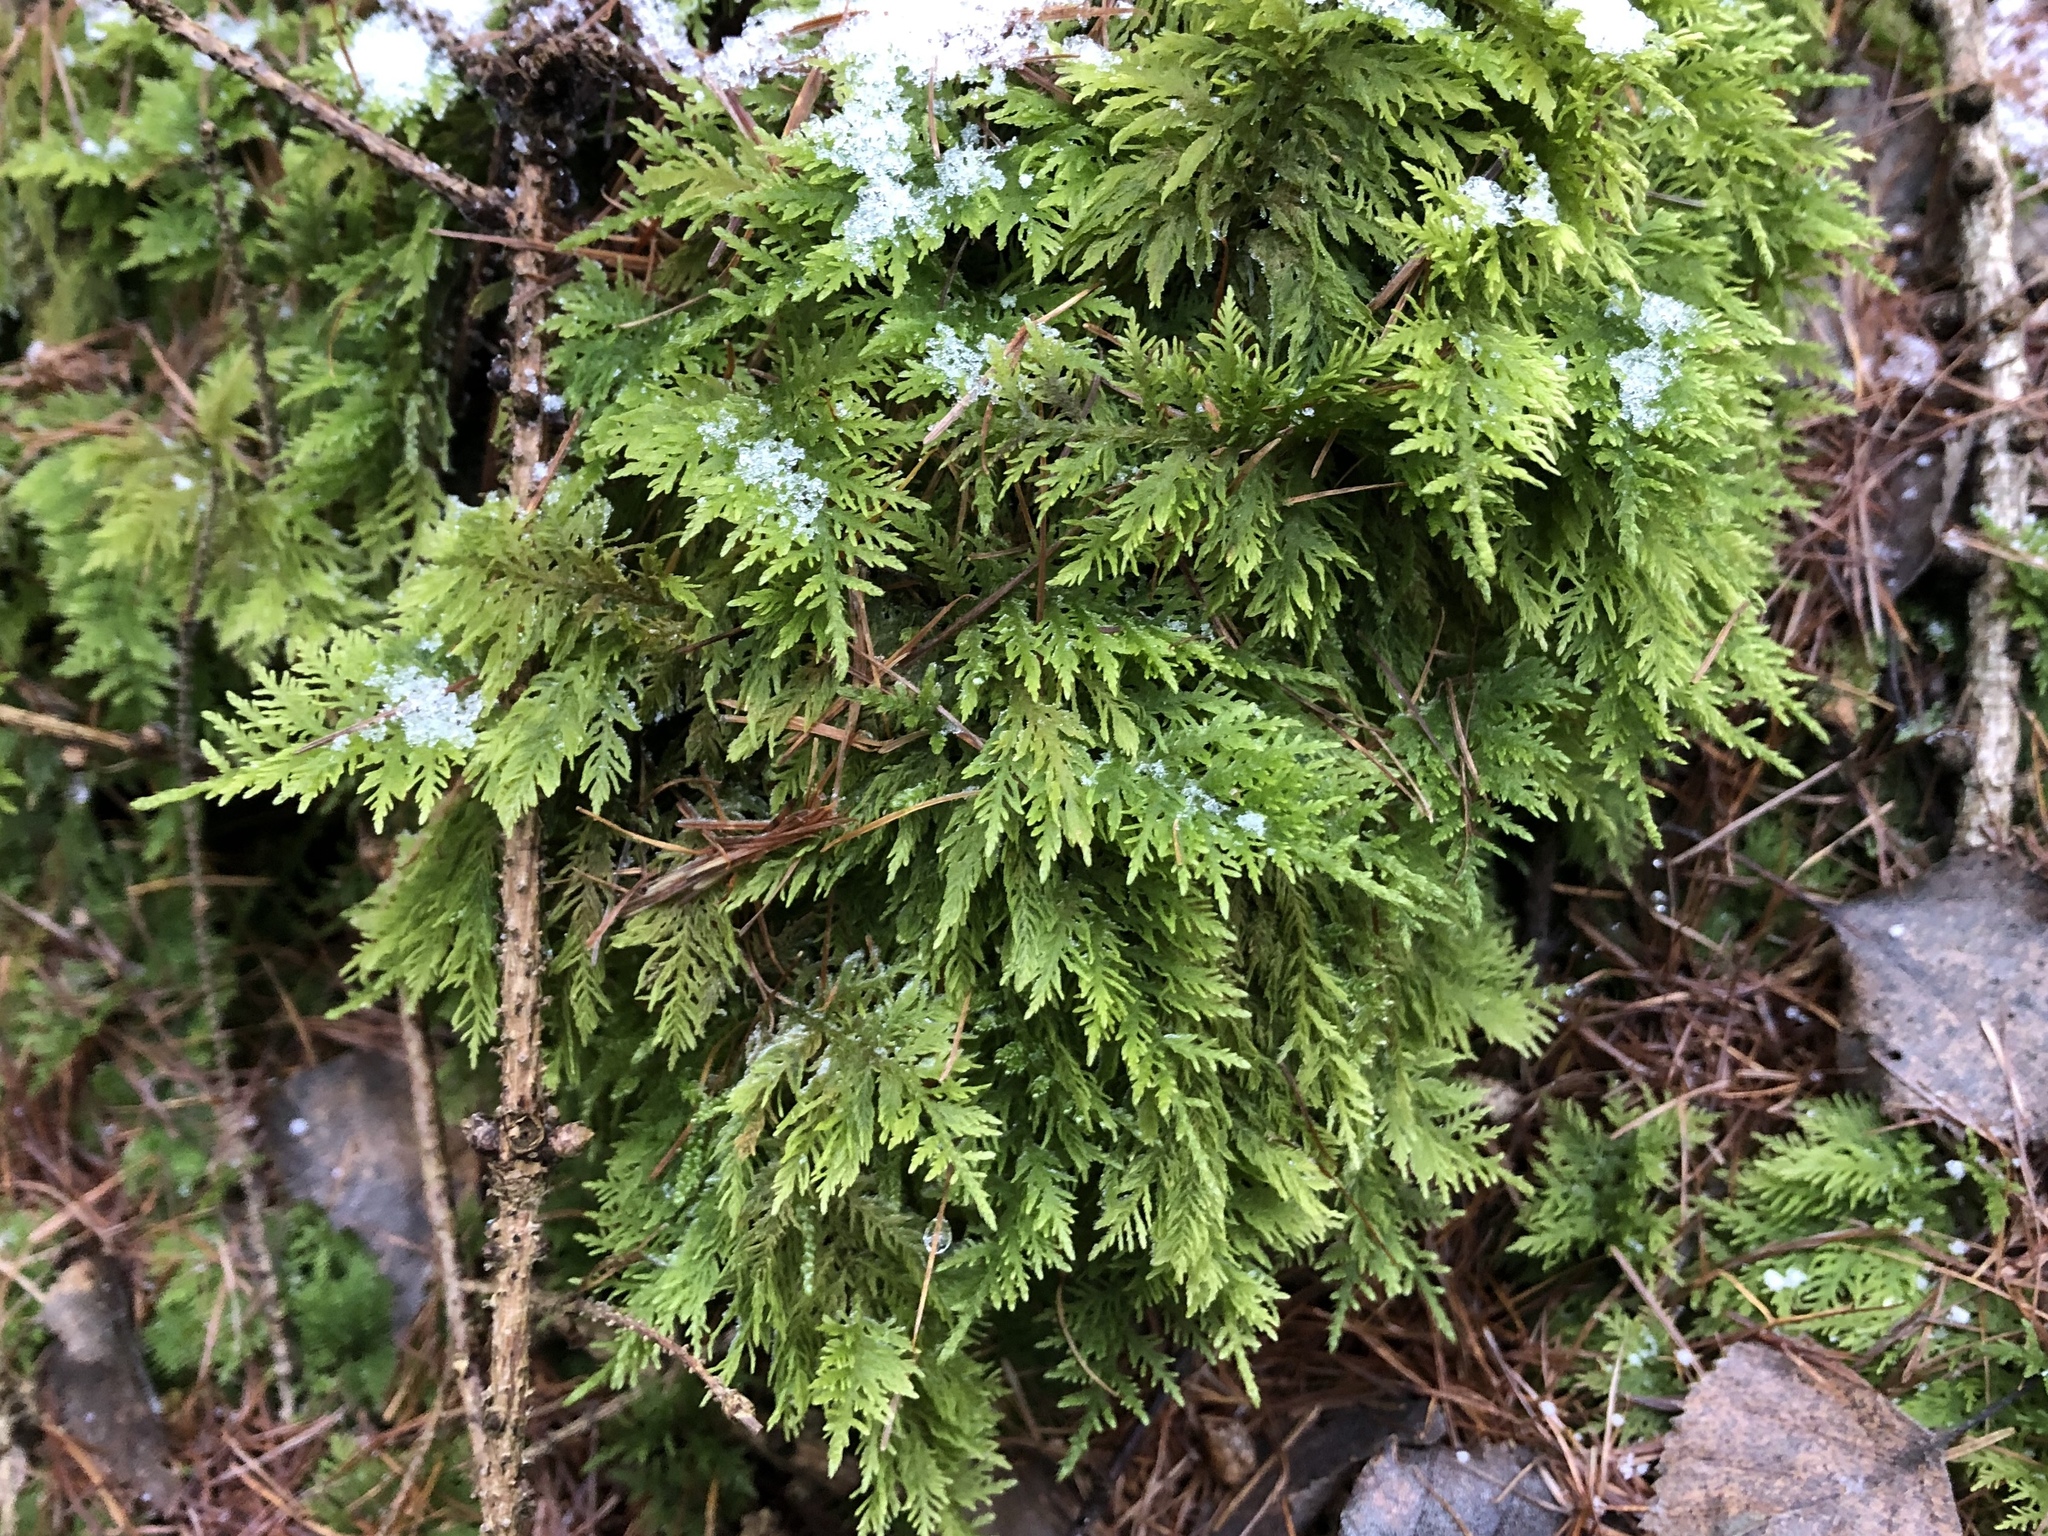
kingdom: Plantae
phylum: Bryophyta
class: Bryopsida
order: Hypnales
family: Thuidiaceae
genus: Thuidium
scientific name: Thuidium tamariscinum
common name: Common tamarisk-moss
